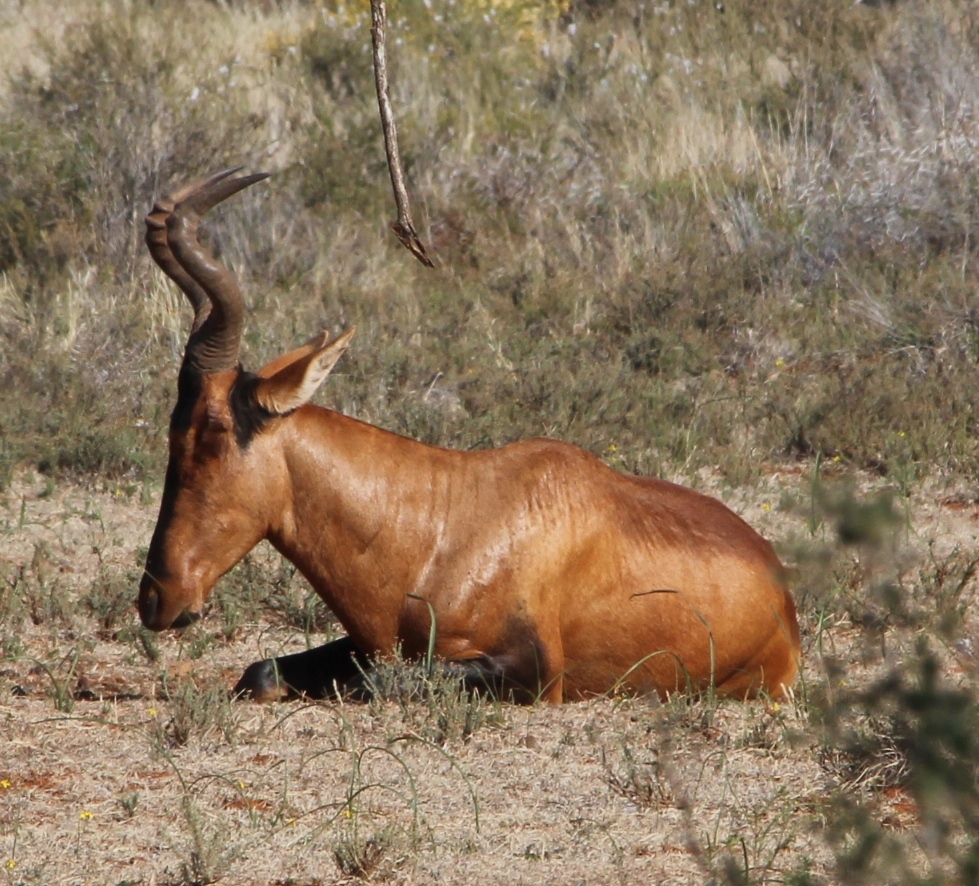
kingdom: Animalia
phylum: Chordata
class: Mammalia
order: Artiodactyla
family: Bovidae
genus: Alcelaphus
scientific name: Alcelaphus caama
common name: Red hartebeest
